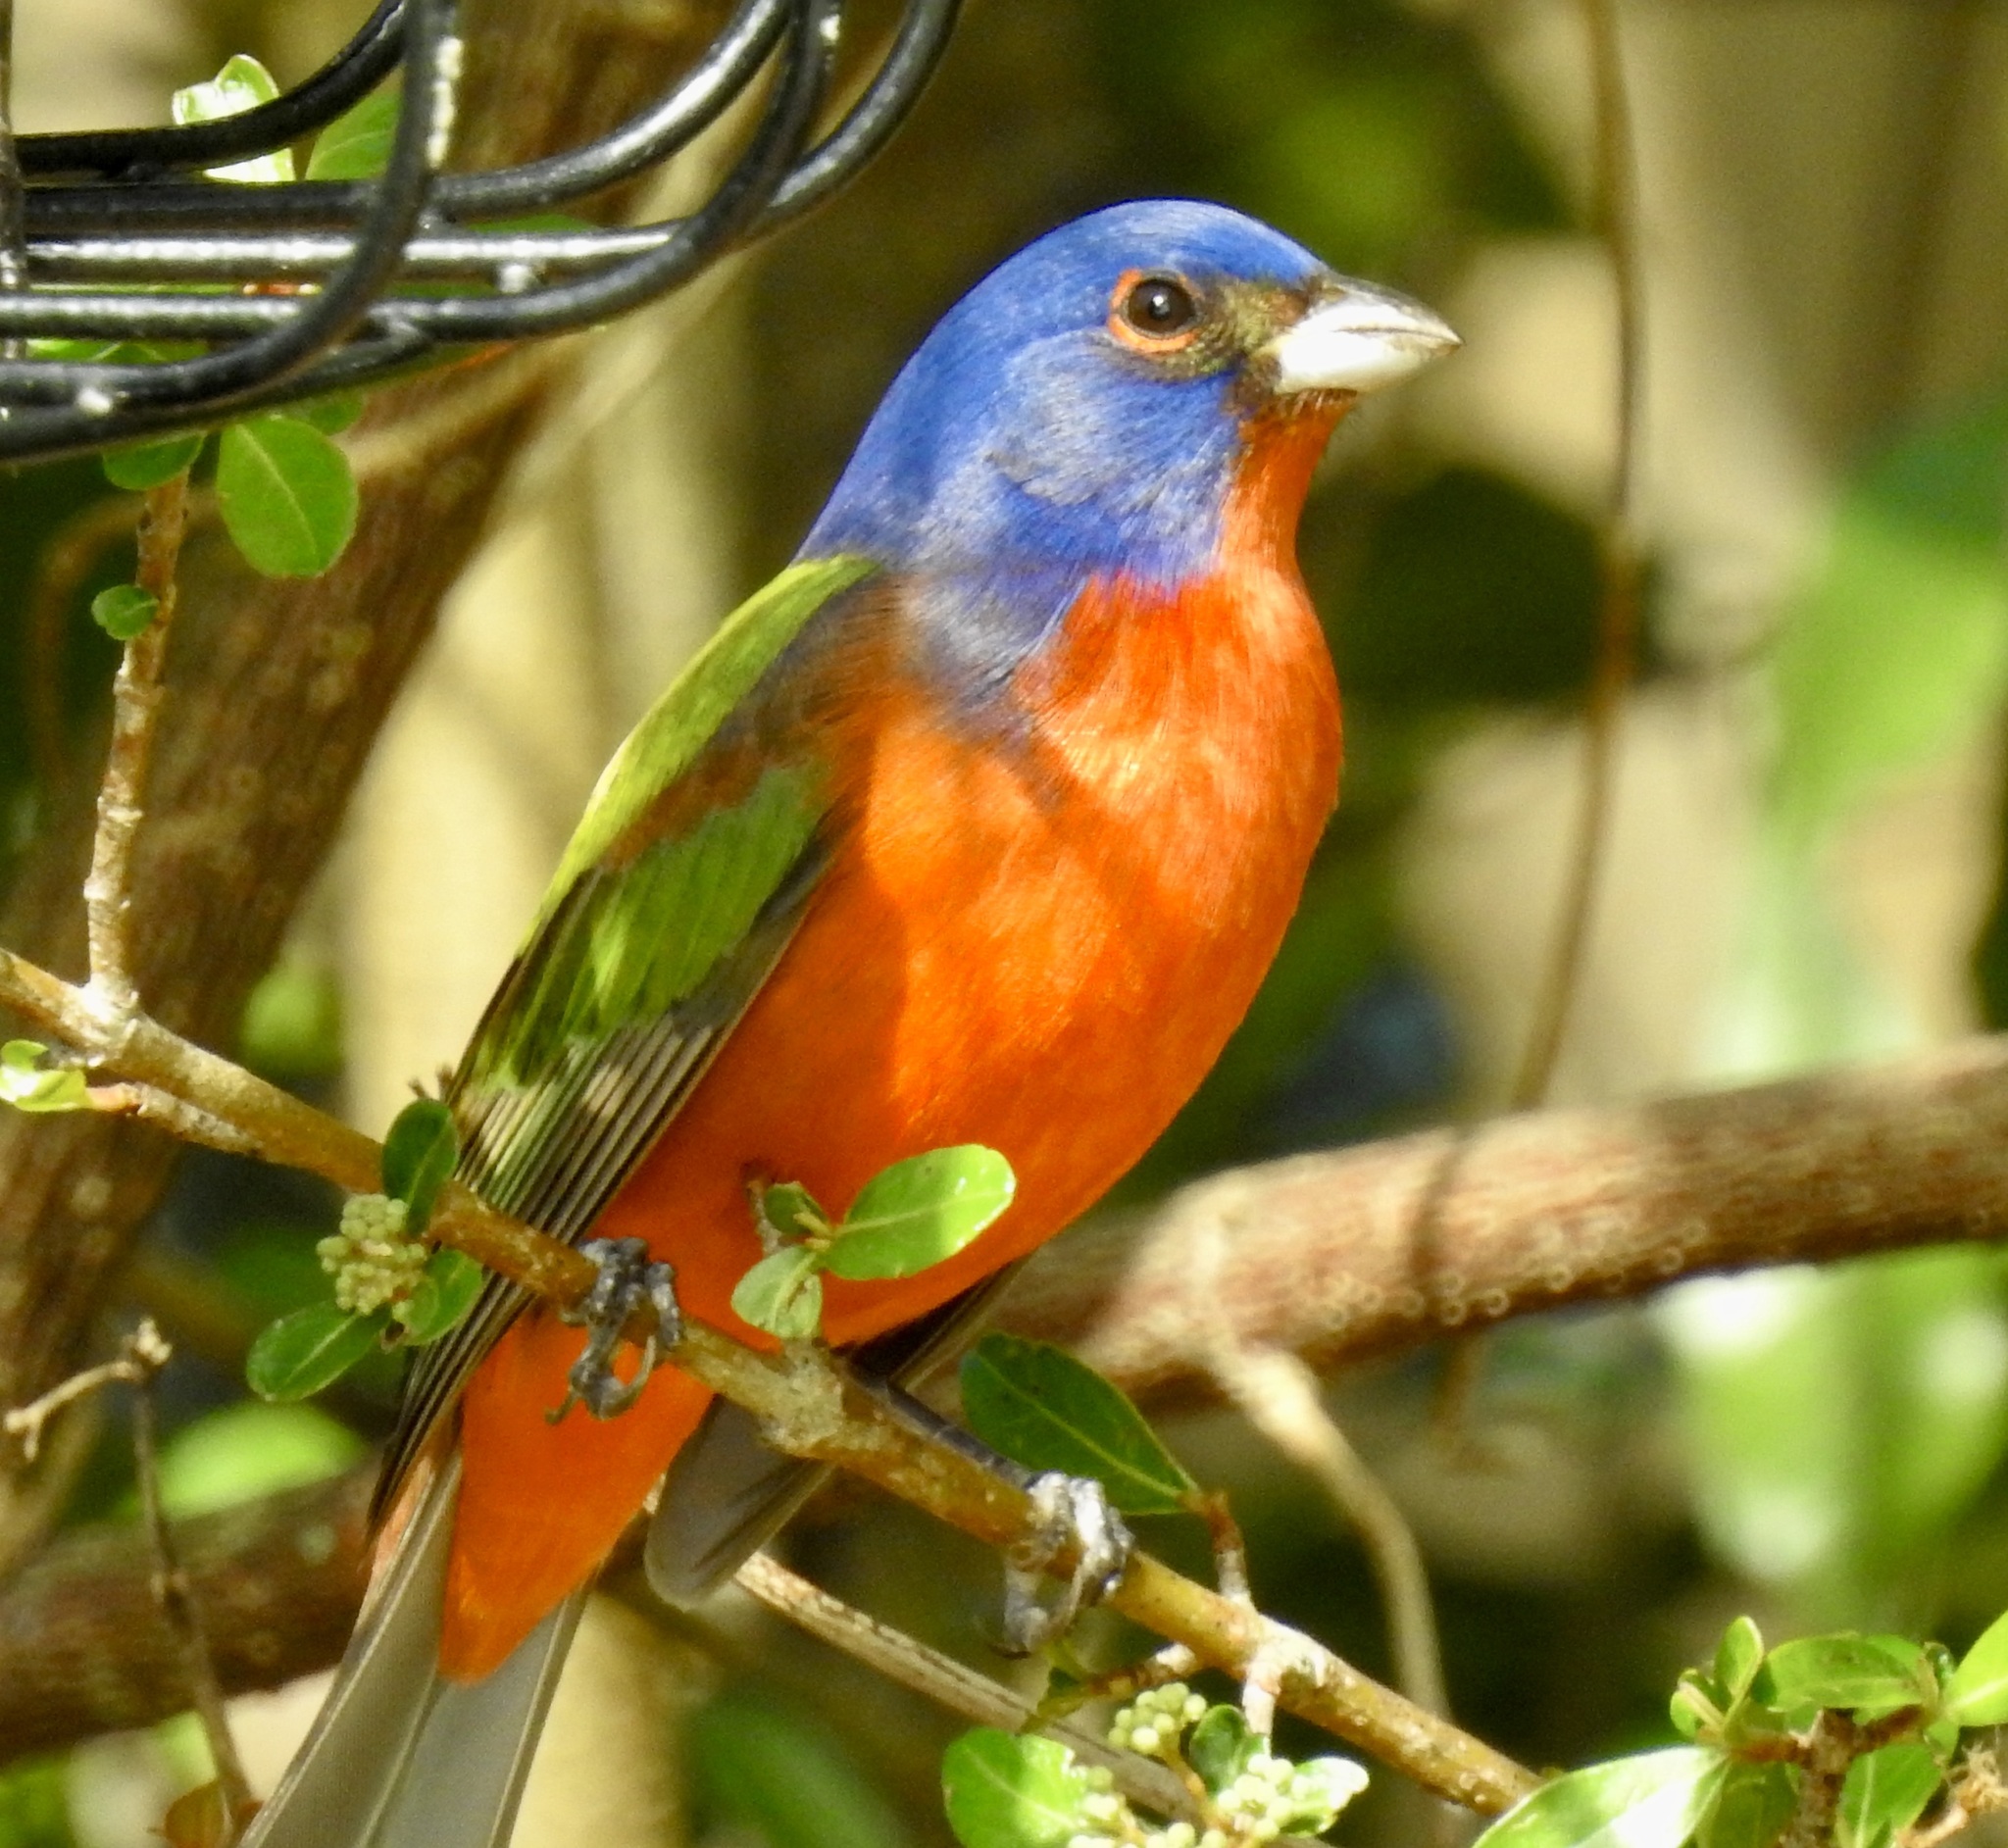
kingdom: Animalia
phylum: Chordata
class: Aves
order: Passeriformes
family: Cardinalidae
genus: Passerina
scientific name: Passerina ciris
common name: Painted bunting
